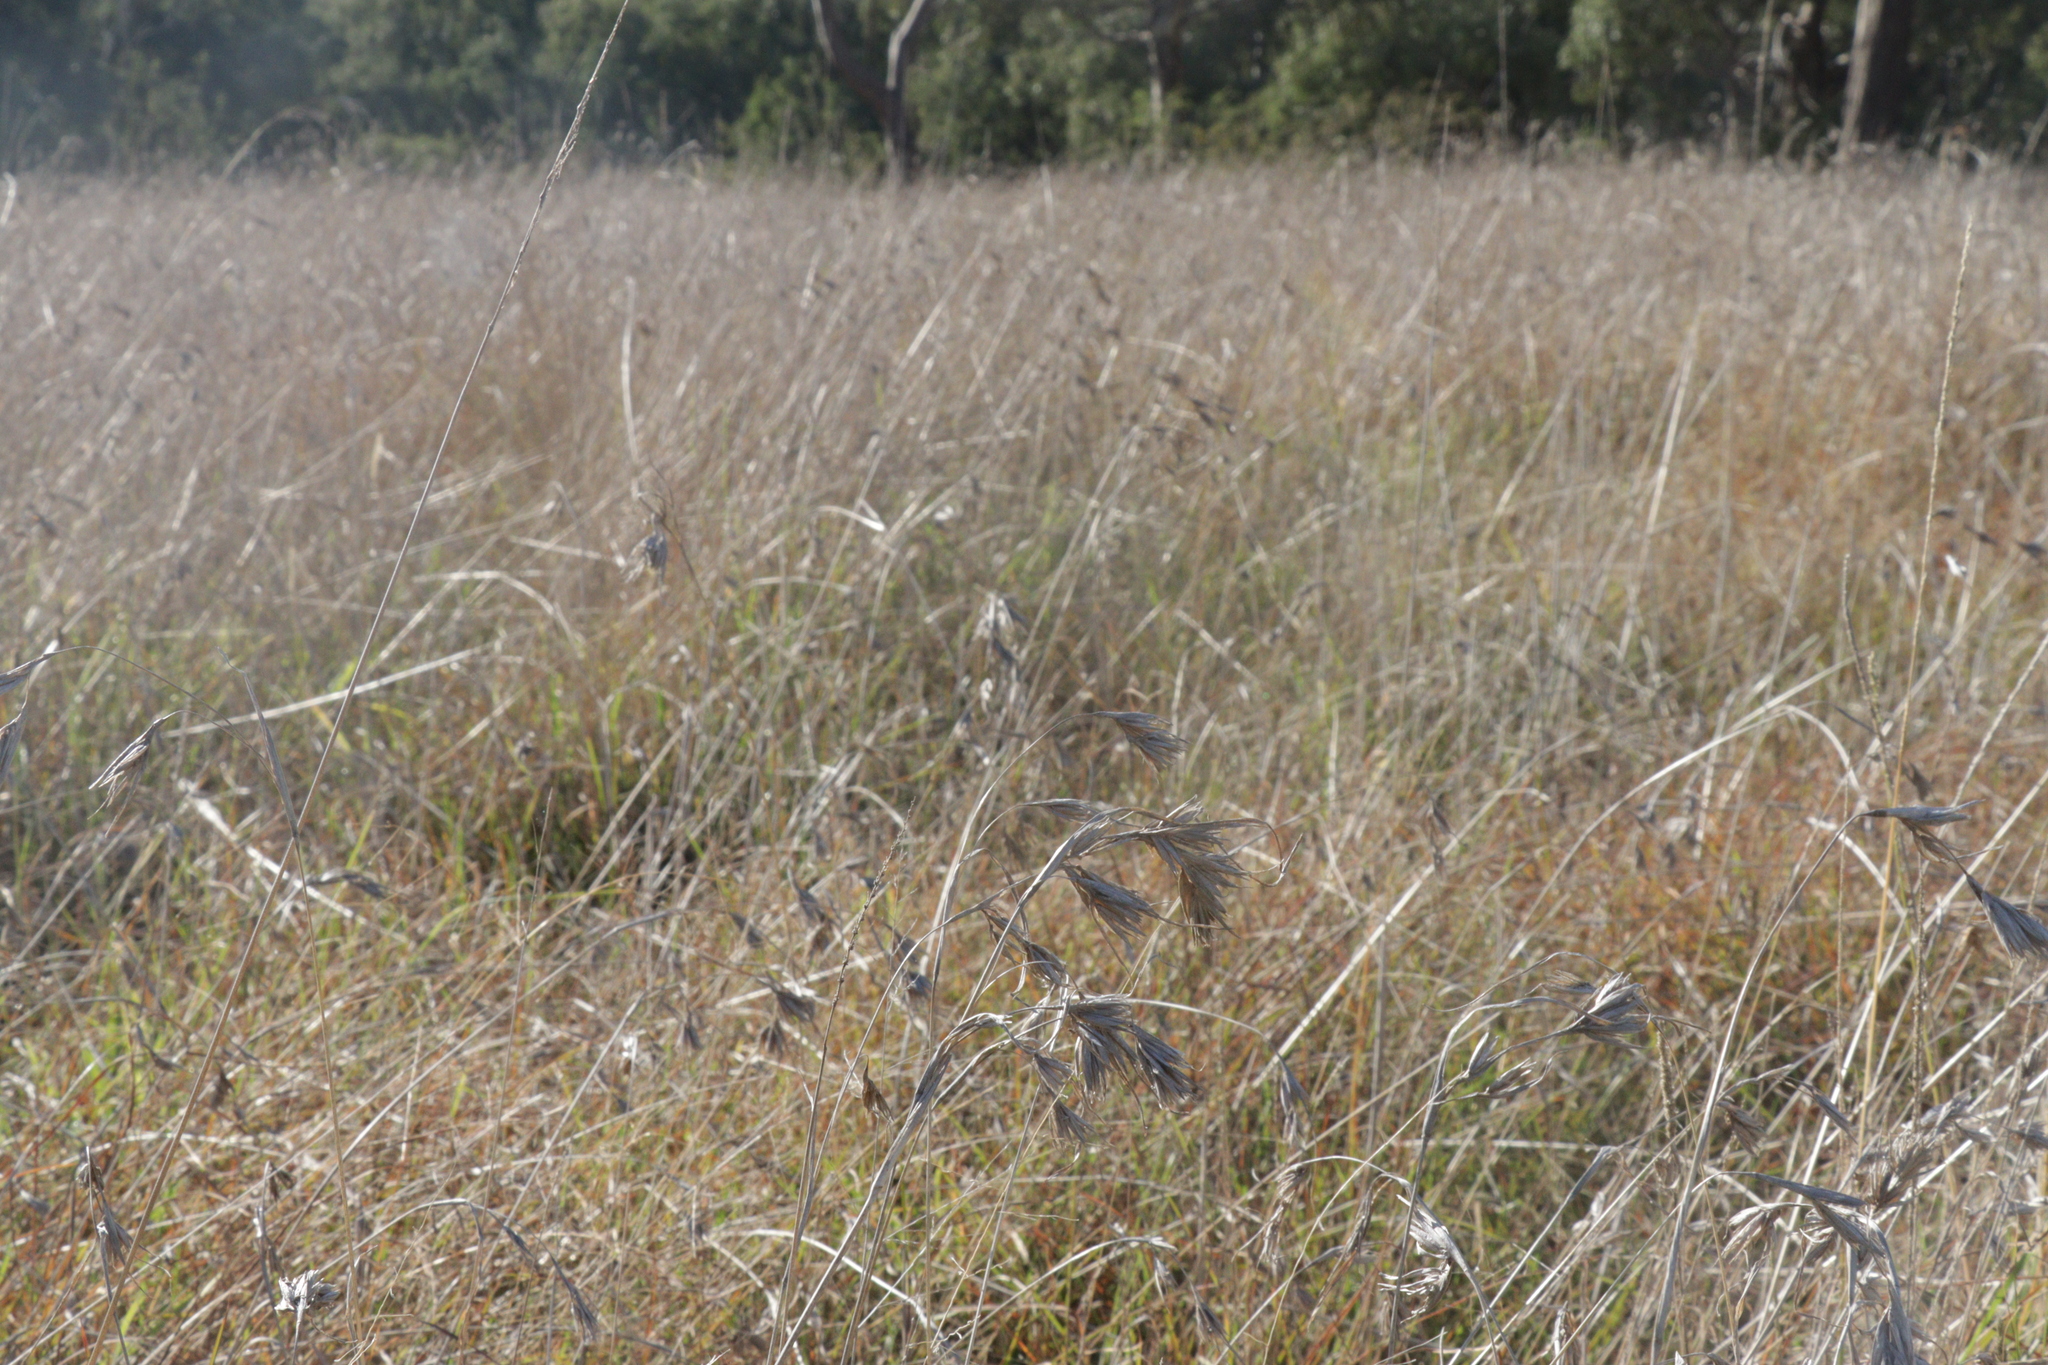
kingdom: Plantae
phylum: Tracheophyta
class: Liliopsida
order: Poales
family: Poaceae
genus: Themeda
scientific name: Themeda triandra
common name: Kangaroo grass
